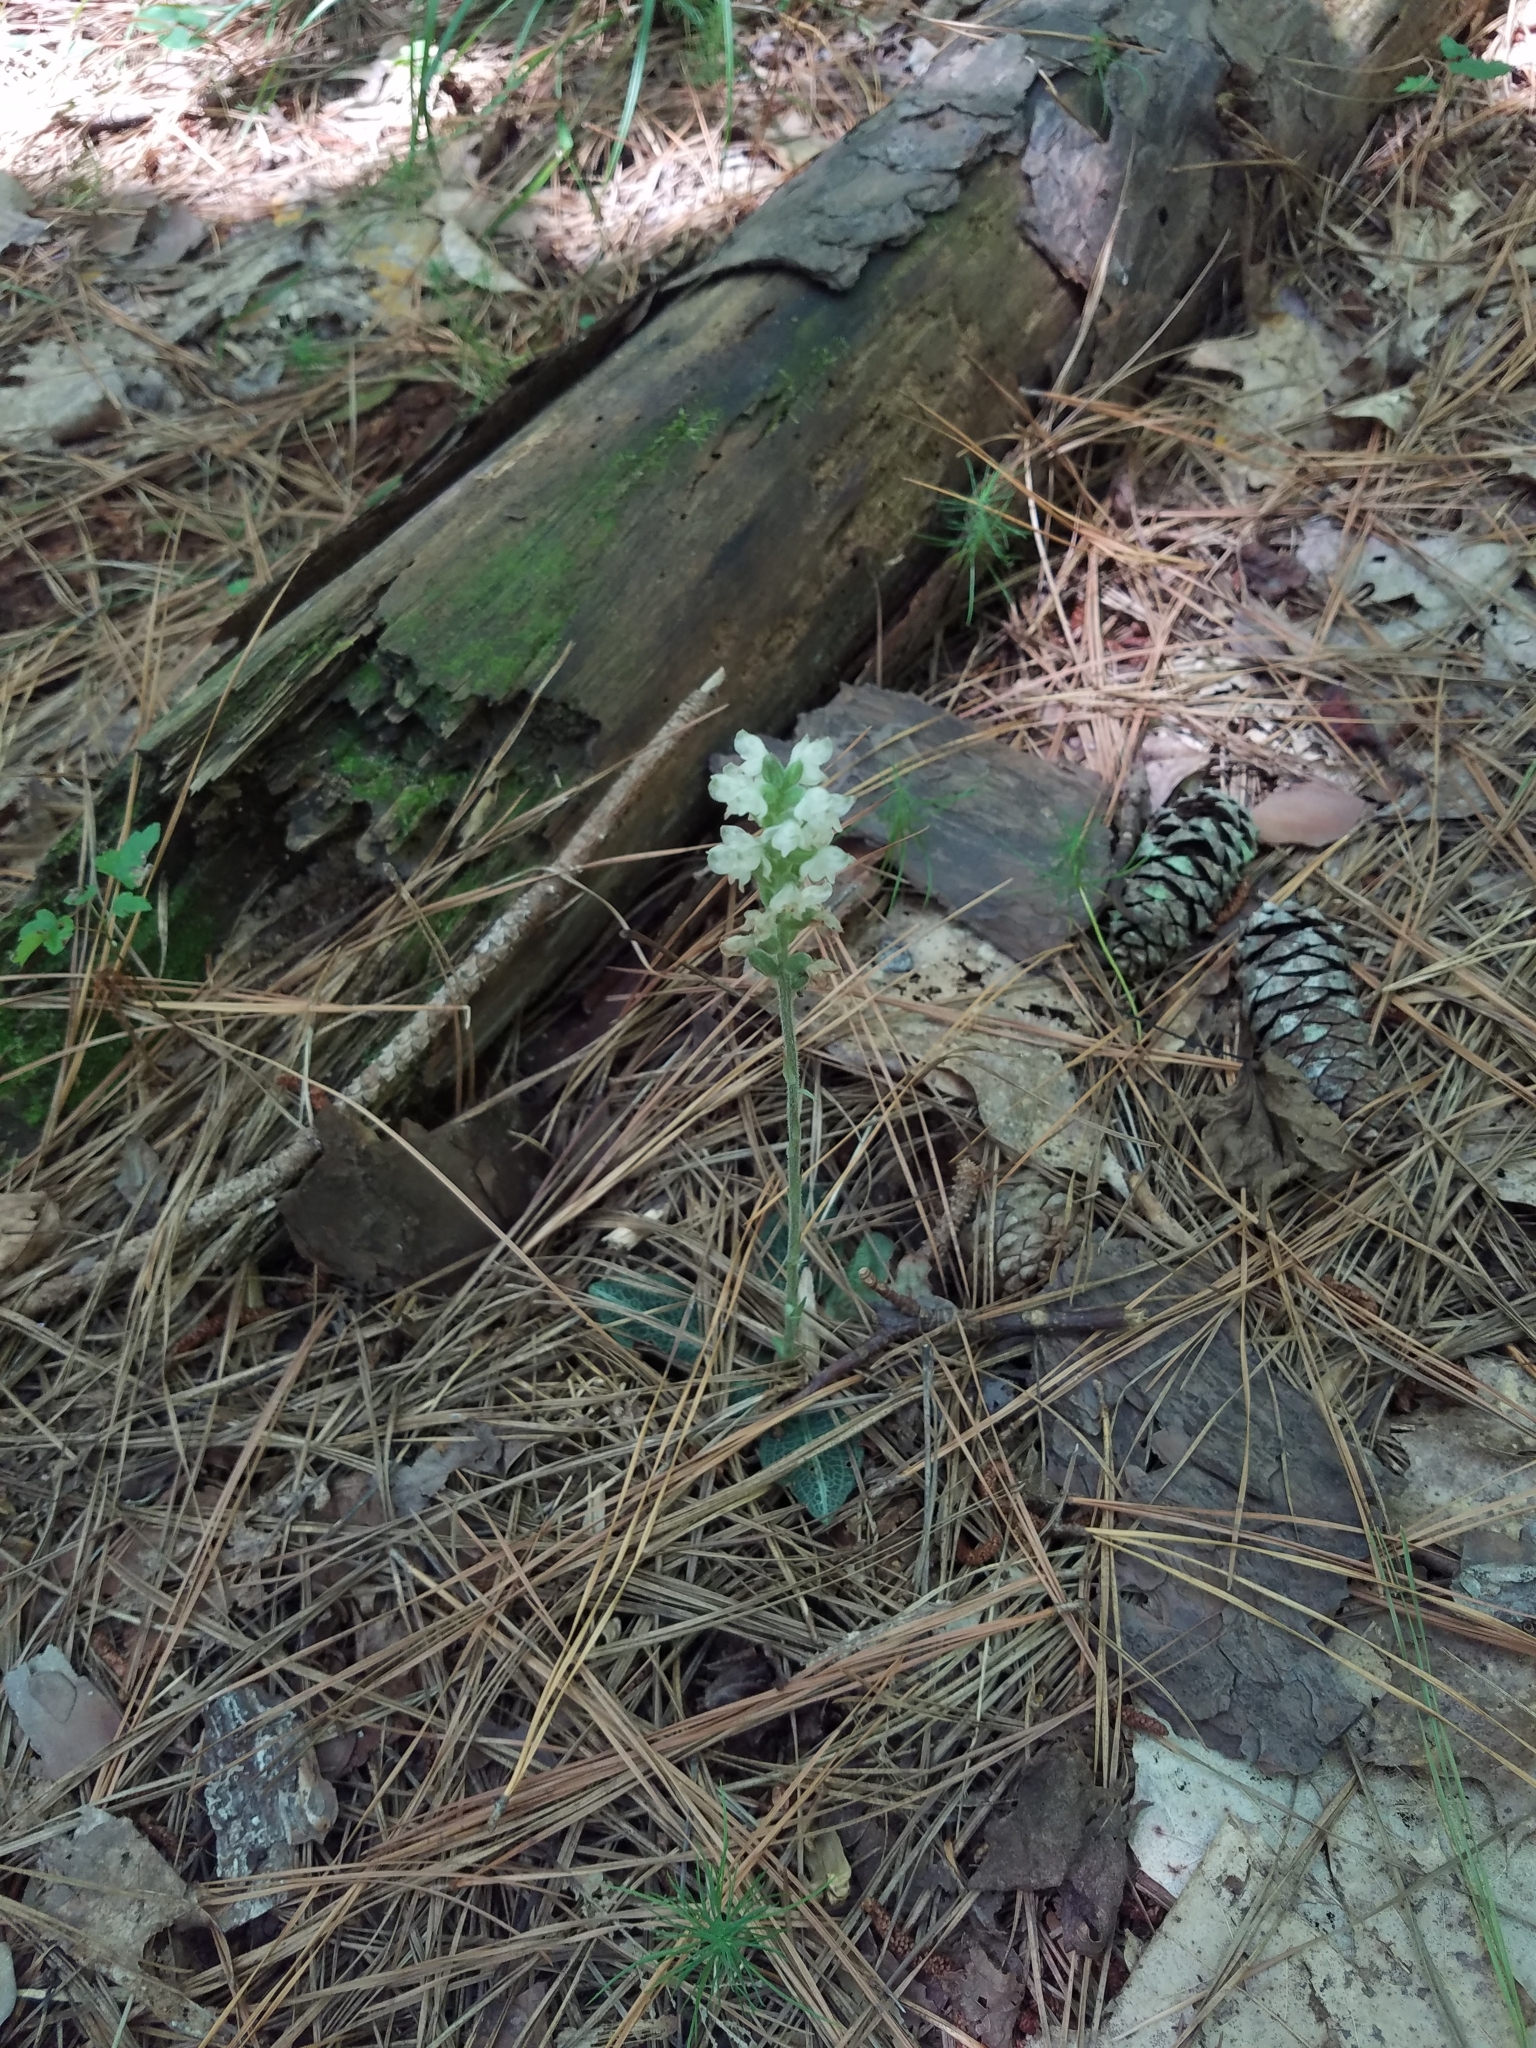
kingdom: Plantae
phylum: Tracheophyta
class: Liliopsida
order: Asparagales
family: Orchidaceae
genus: Goodyera
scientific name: Goodyera pubescens
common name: Downy rattlesnake-plantain
